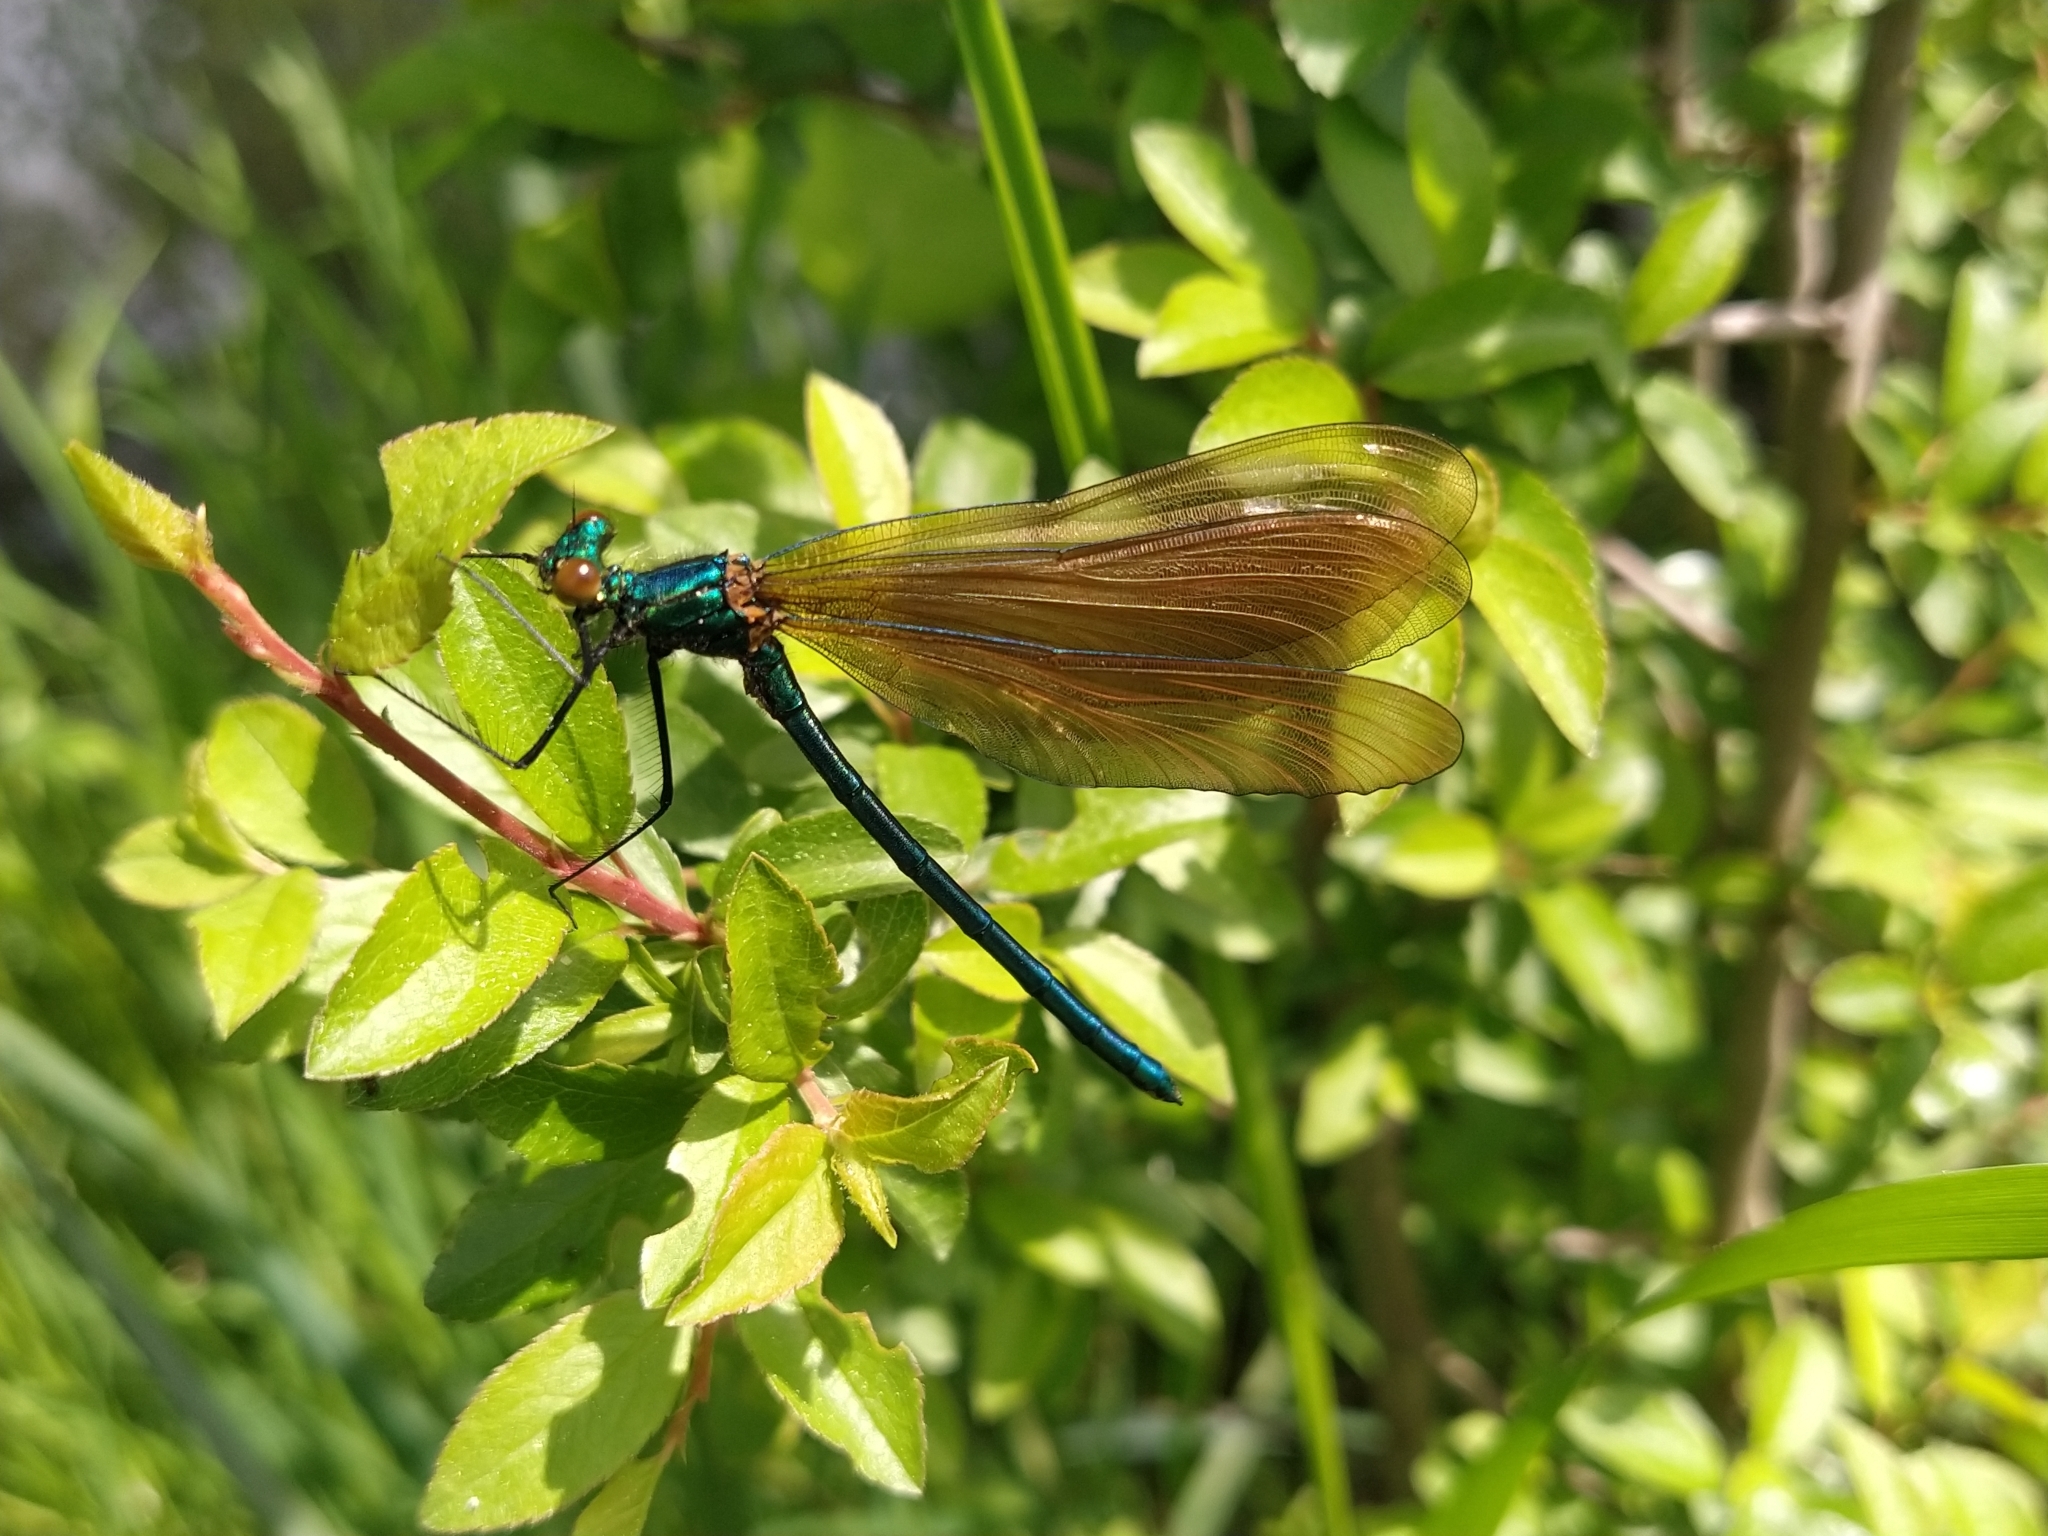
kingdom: Animalia
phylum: Arthropoda
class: Insecta
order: Odonata
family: Calopterygidae
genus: Calopteryx
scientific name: Calopteryx virgo
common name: Beautiful demoiselle
